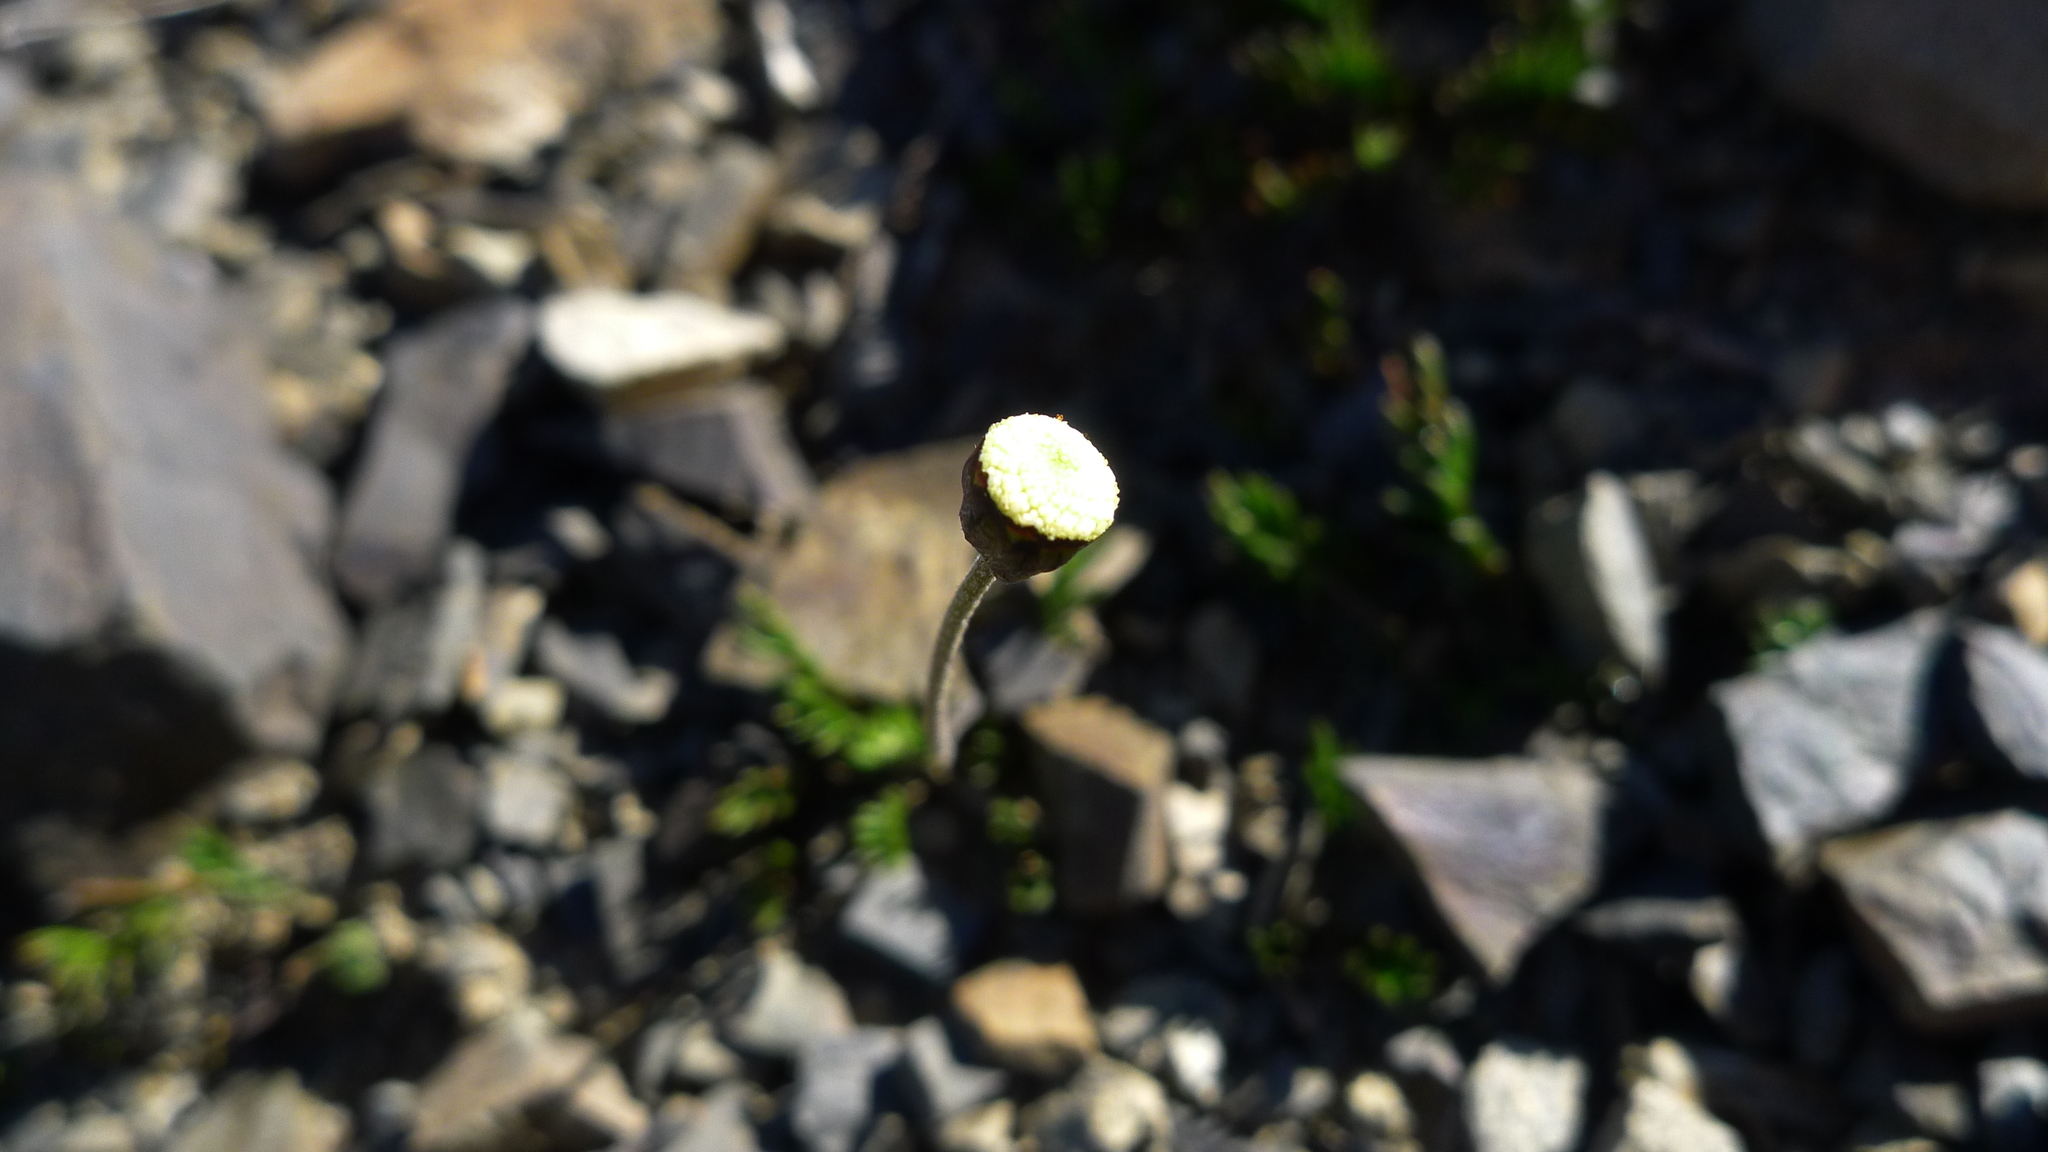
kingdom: Plantae
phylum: Tracheophyta
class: Magnoliopsida
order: Asterales
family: Asteraceae
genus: Leptinella
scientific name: Leptinella pectinata
